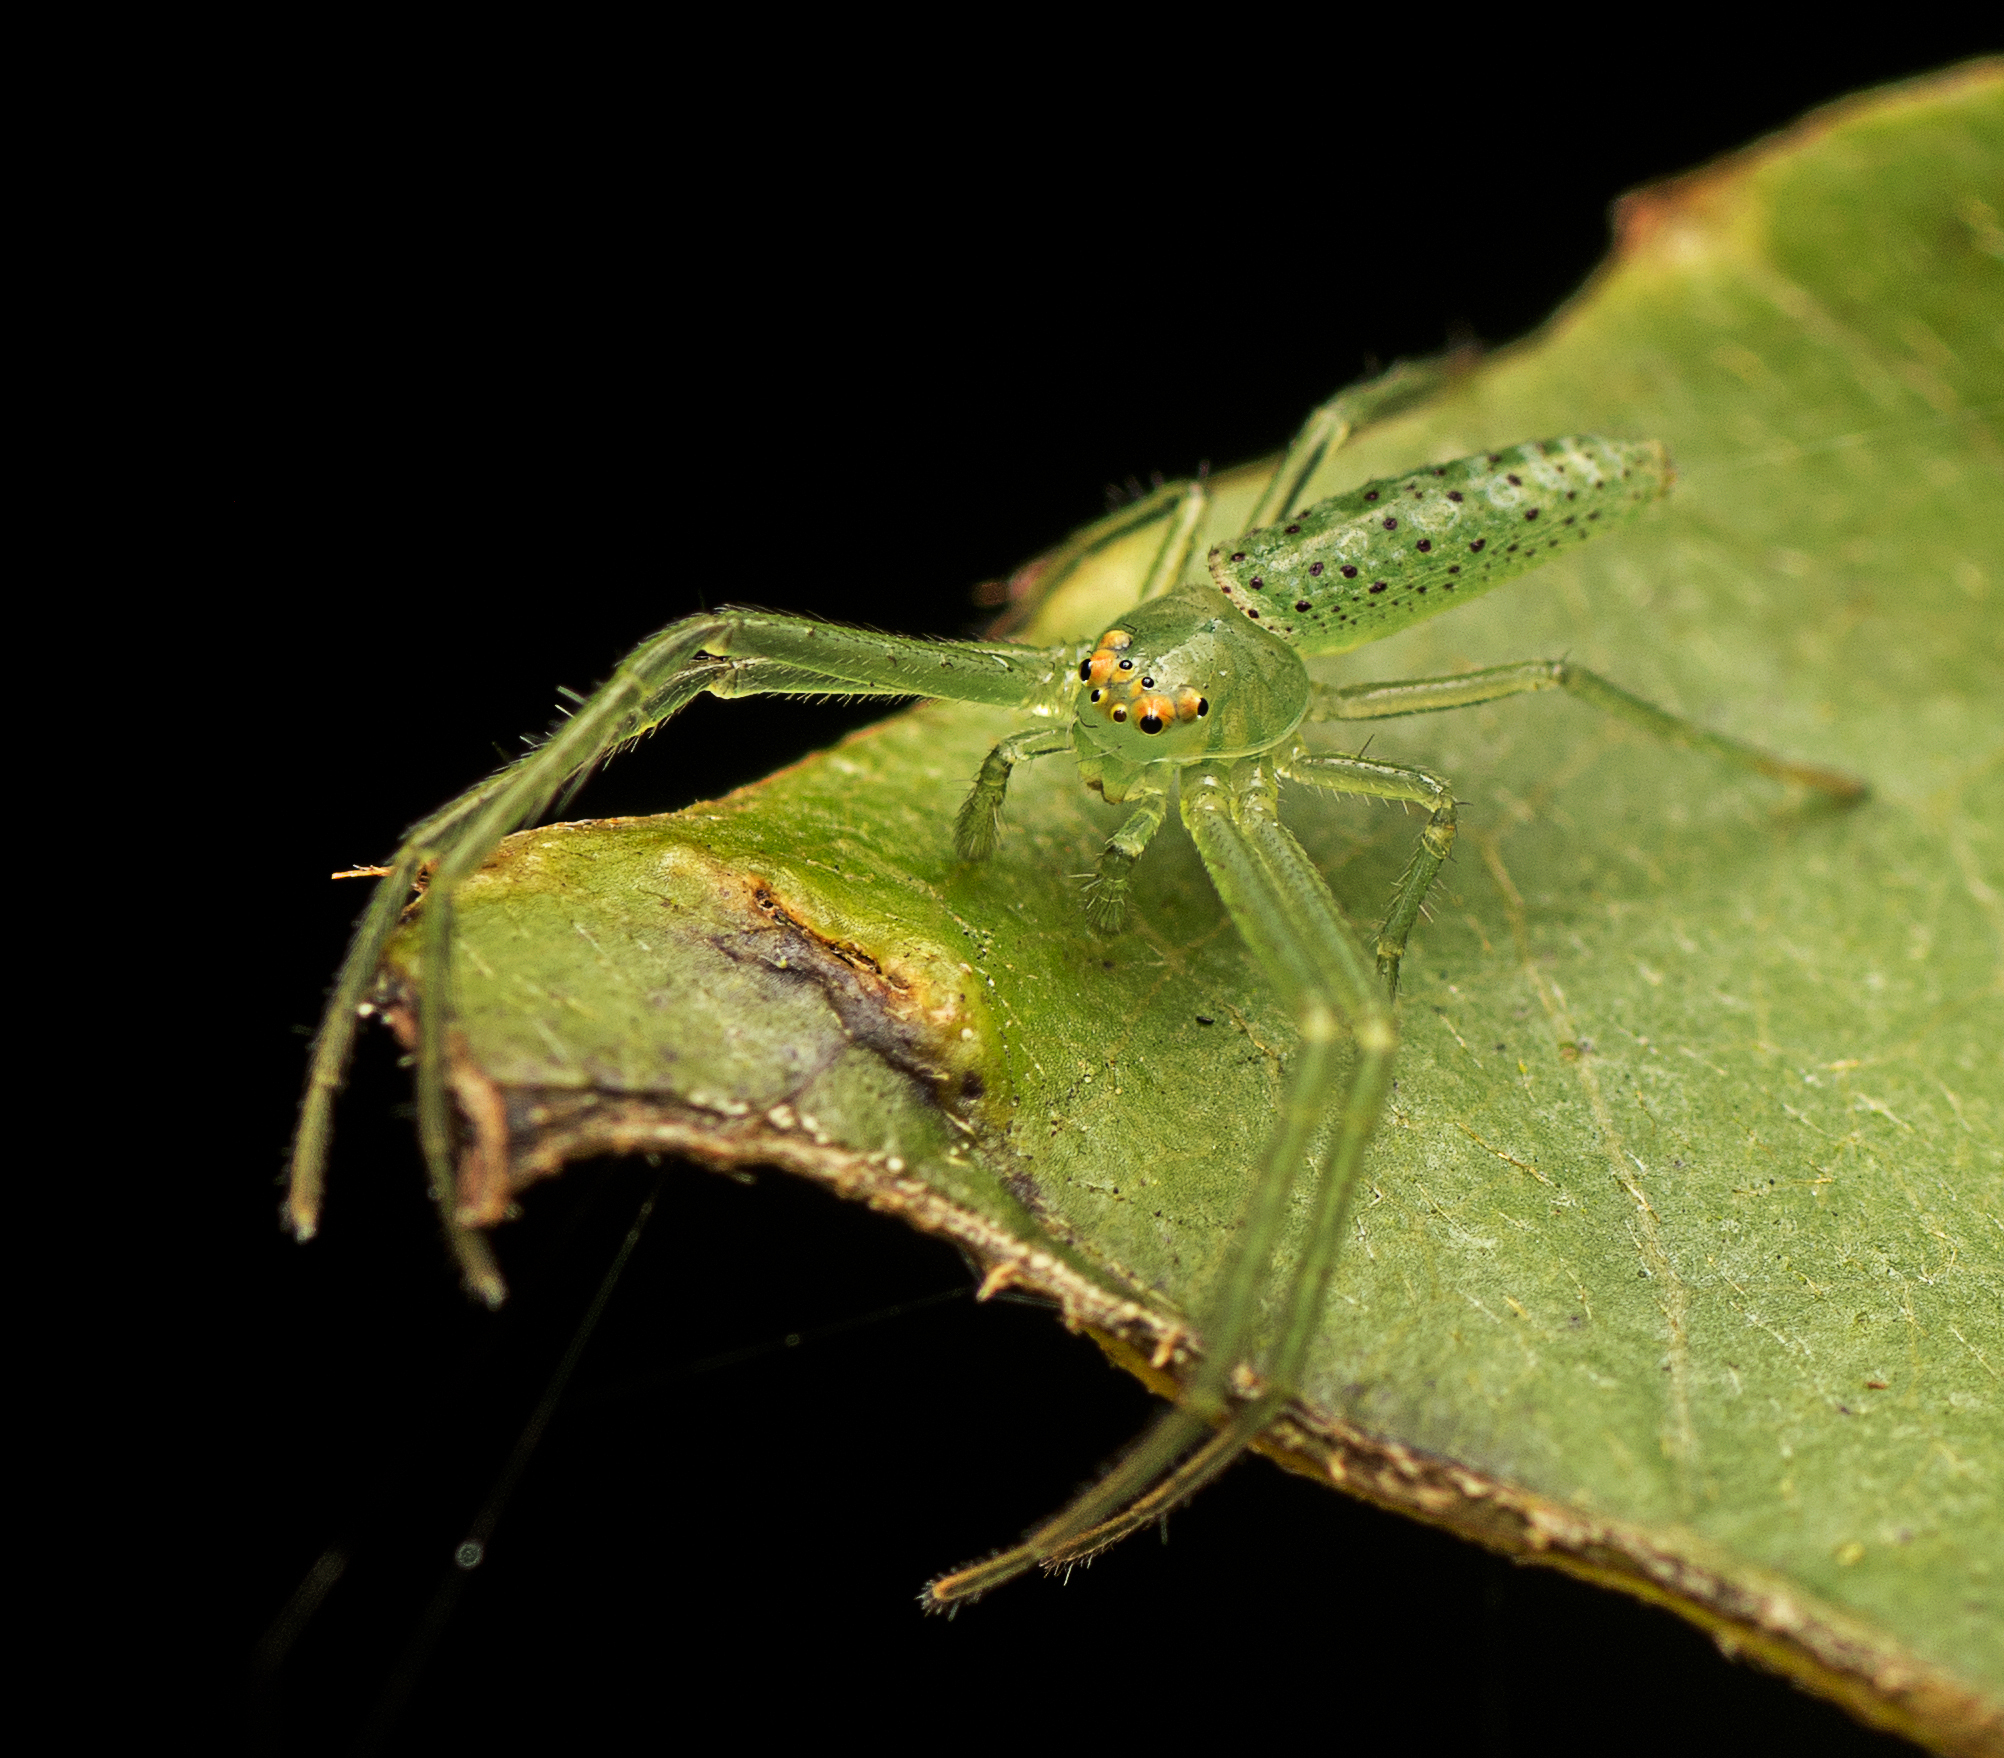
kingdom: Animalia
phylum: Arthropoda
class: Arachnida
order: Araneae
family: Thomisidae
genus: Cetratus
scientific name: Cetratus rubropunctatus
